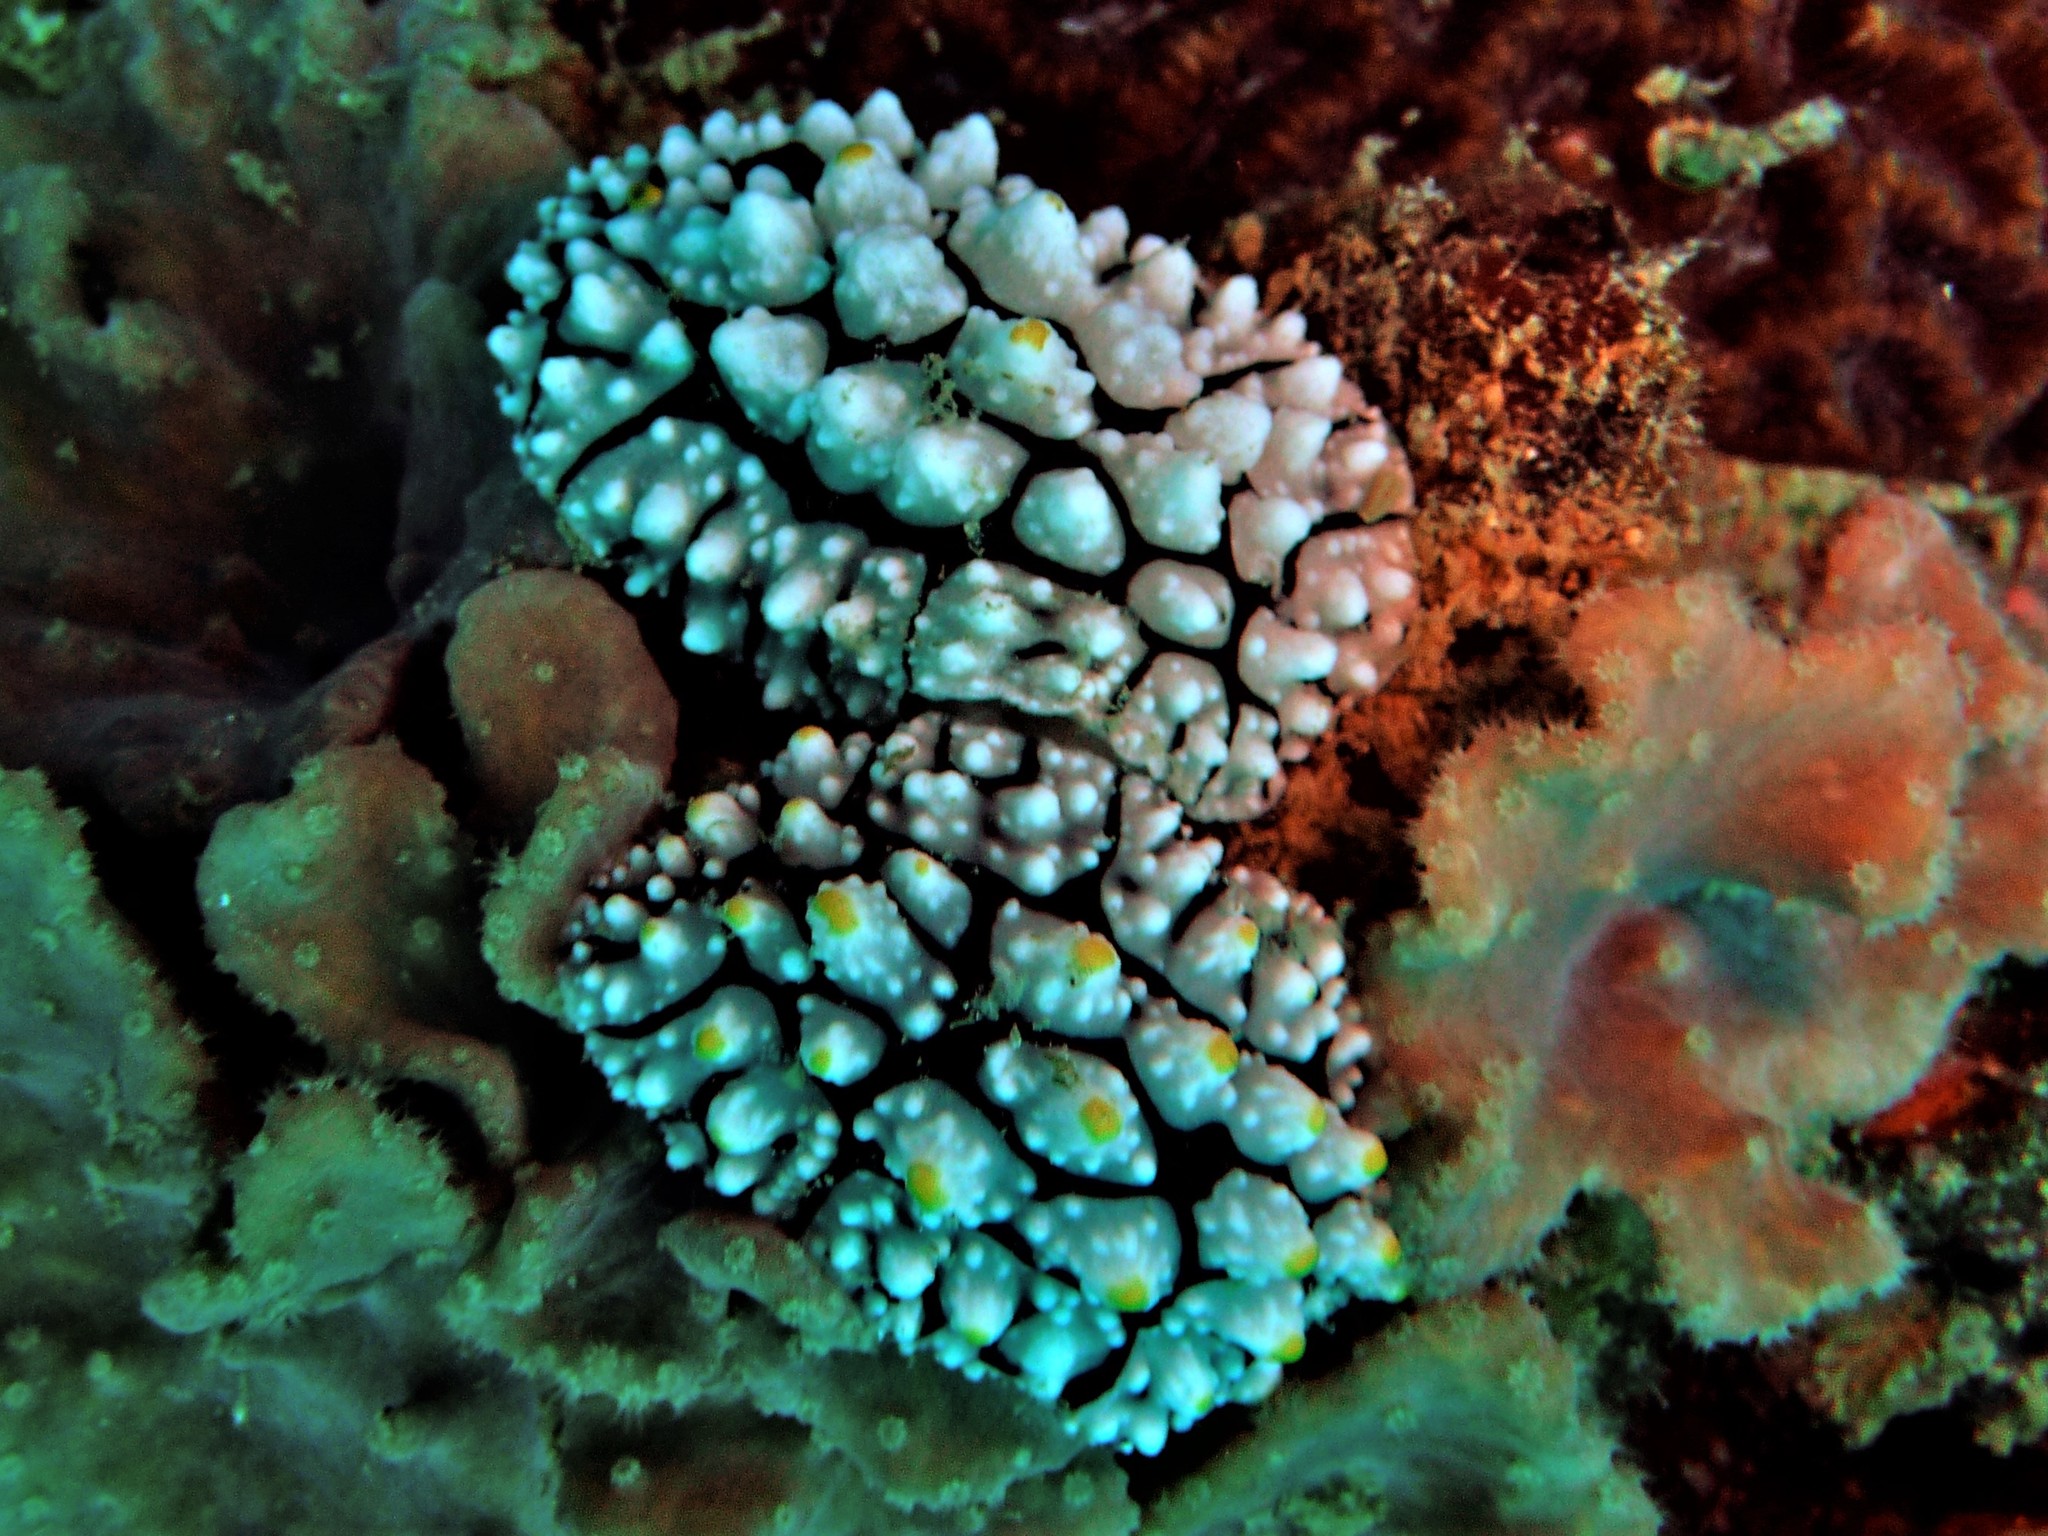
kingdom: Animalia
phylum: Mollusca
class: Gastropoda
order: Nudibranchia
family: Phyllidiidae
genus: Phyllidia
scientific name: Phyllidia elegans
